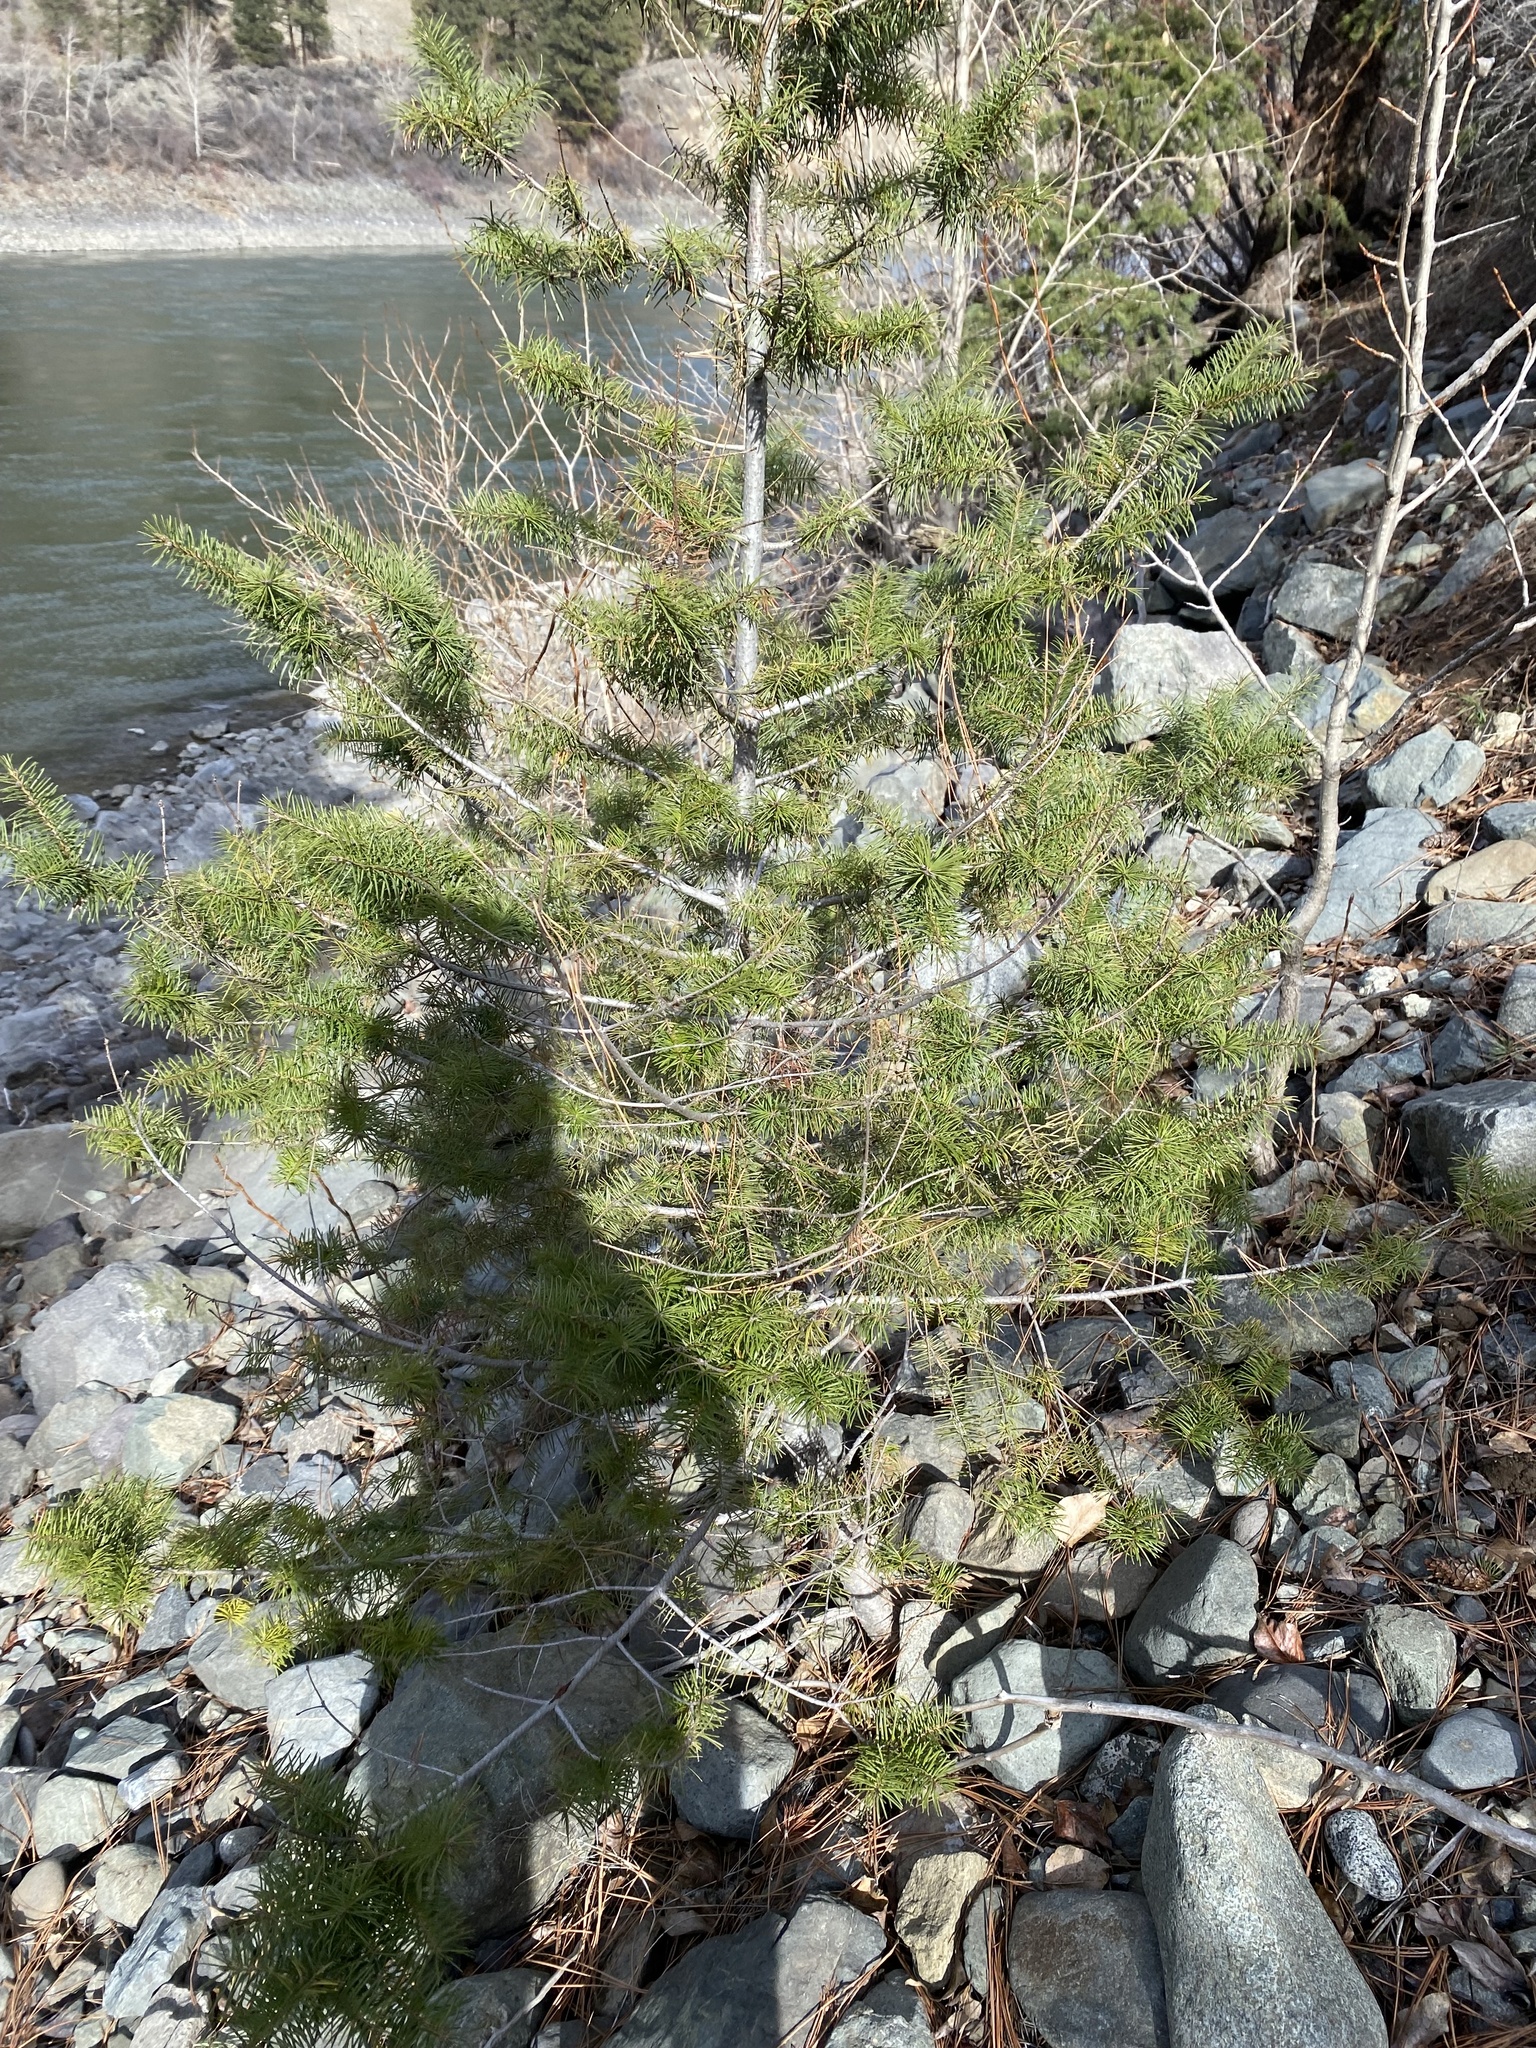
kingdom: Plantae
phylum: Tracheophyta
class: Pinopsida
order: Pinales
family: Pinaceae
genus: Pseudotsuga
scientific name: Pseudotsuga menziesii
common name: Douglas fir
